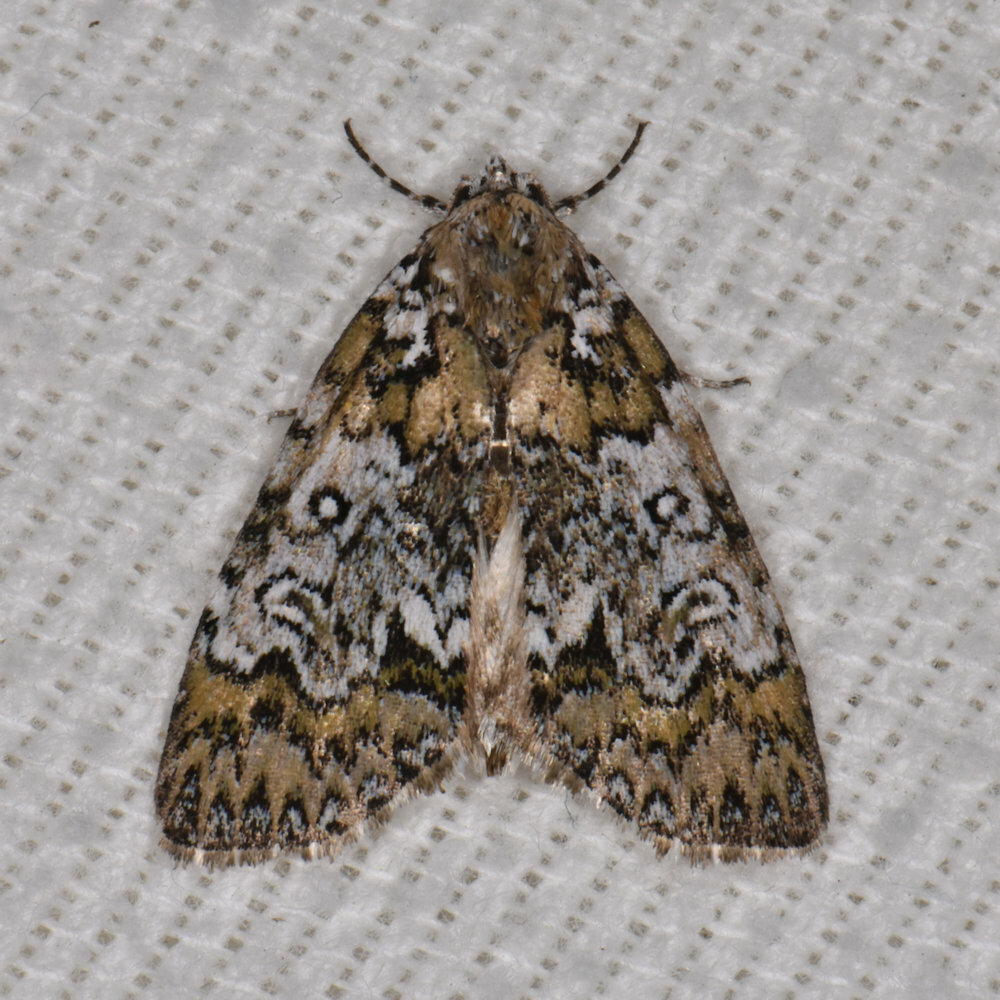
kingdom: Animalia
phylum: Arthropoda
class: Insecta
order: Lepidoptera
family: Noctuidae
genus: Cerma
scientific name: Cerma cora
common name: Bird dropping moth
